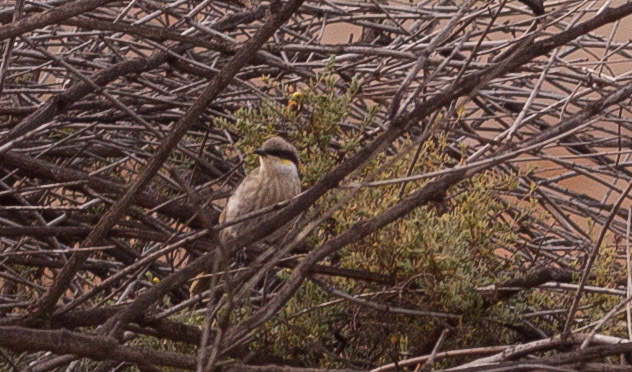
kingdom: Animalia
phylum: Chordata
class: Aves
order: Passeriformes
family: Meliphagidae
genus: Gavicalis
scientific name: Gavicalis virescens
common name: Singing honeyeater
